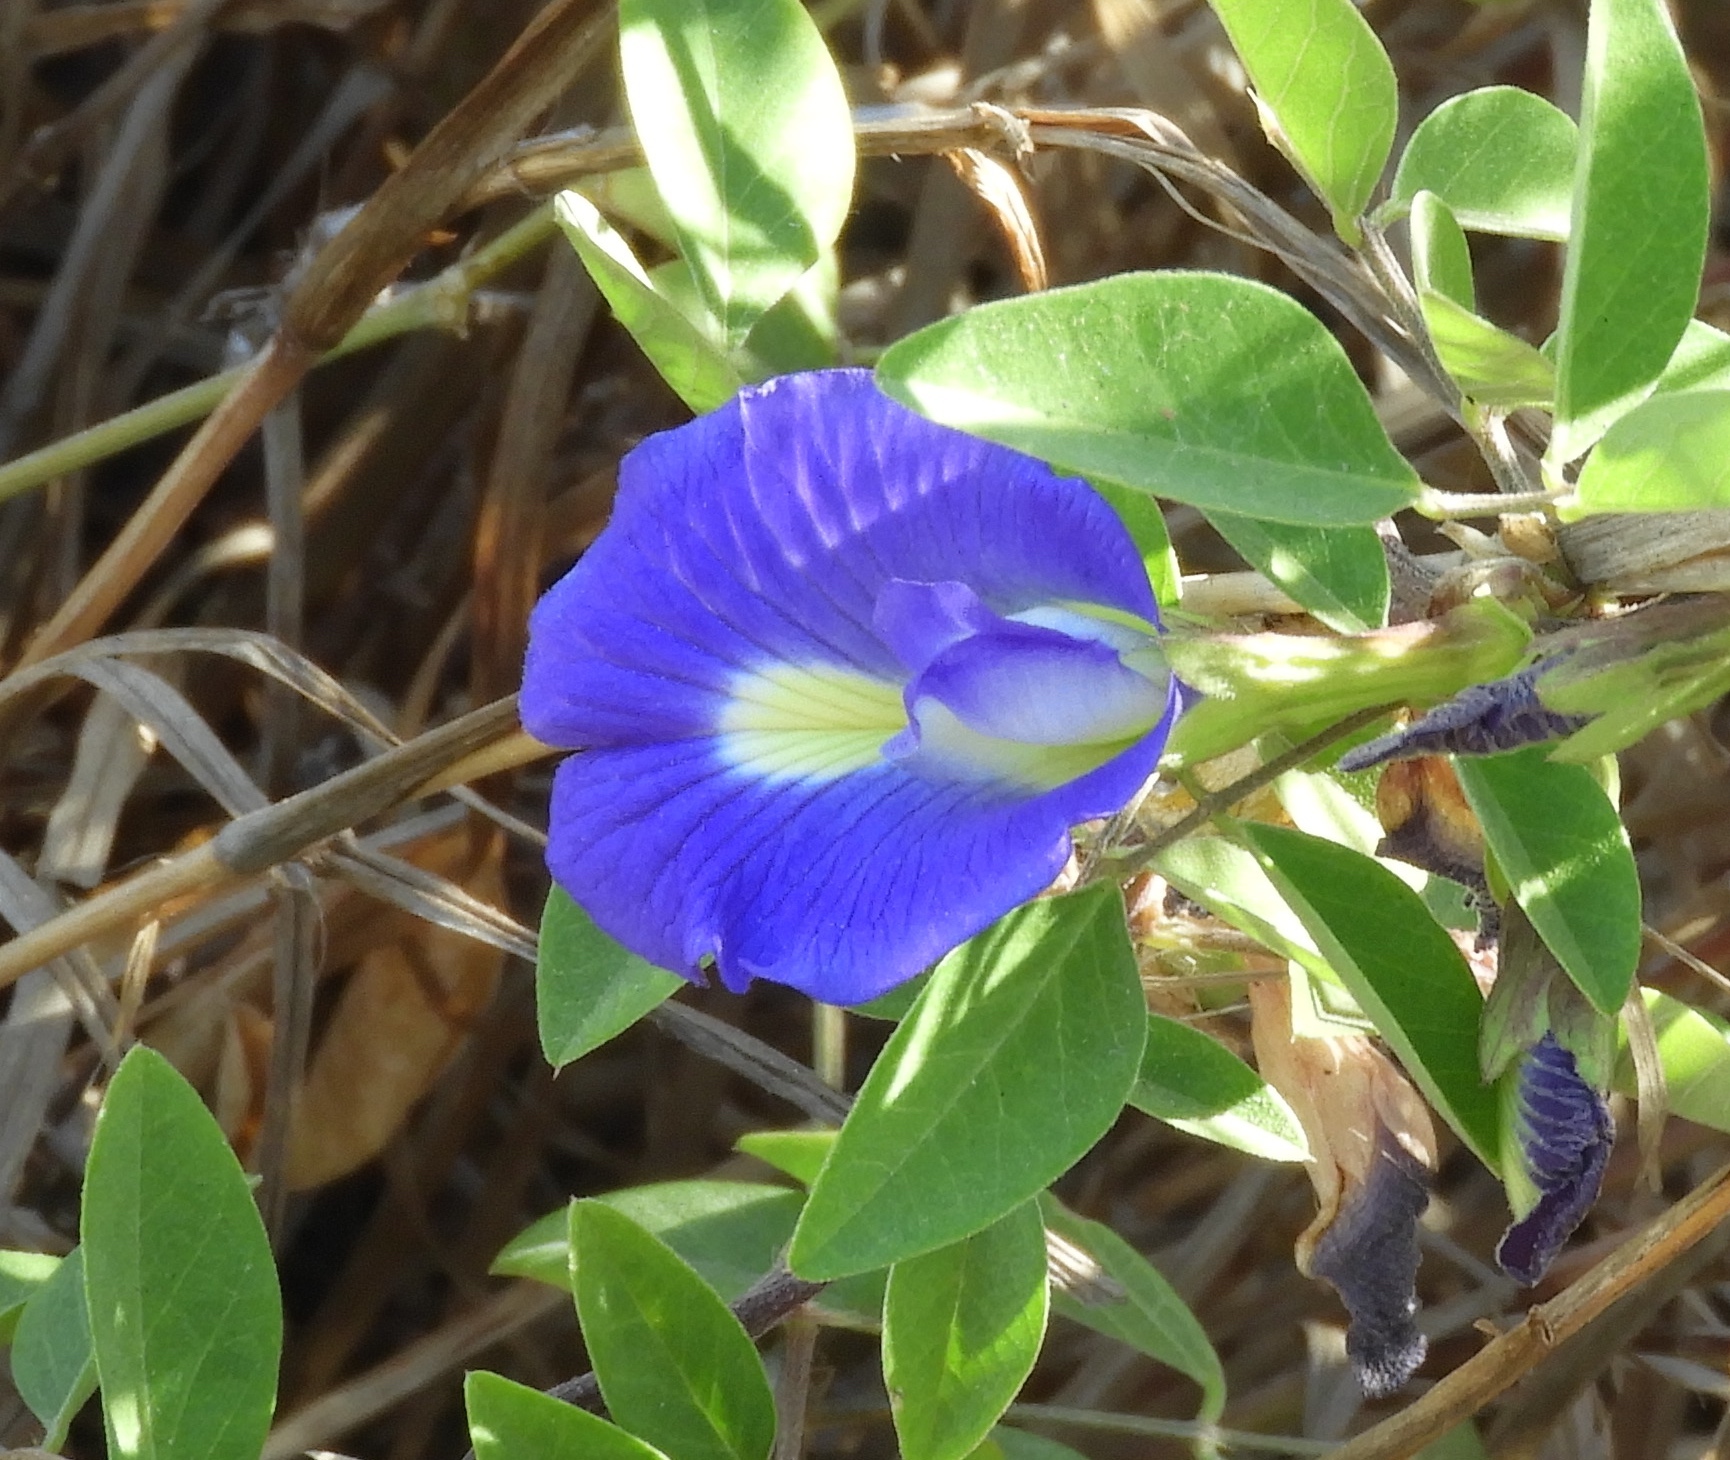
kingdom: Plantae
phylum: Tracheophyta
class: Magnoliopsida
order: Fabales
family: Fabaceae
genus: Clitoria
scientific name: Clitoria ternatea
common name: Asian pigeonwings
